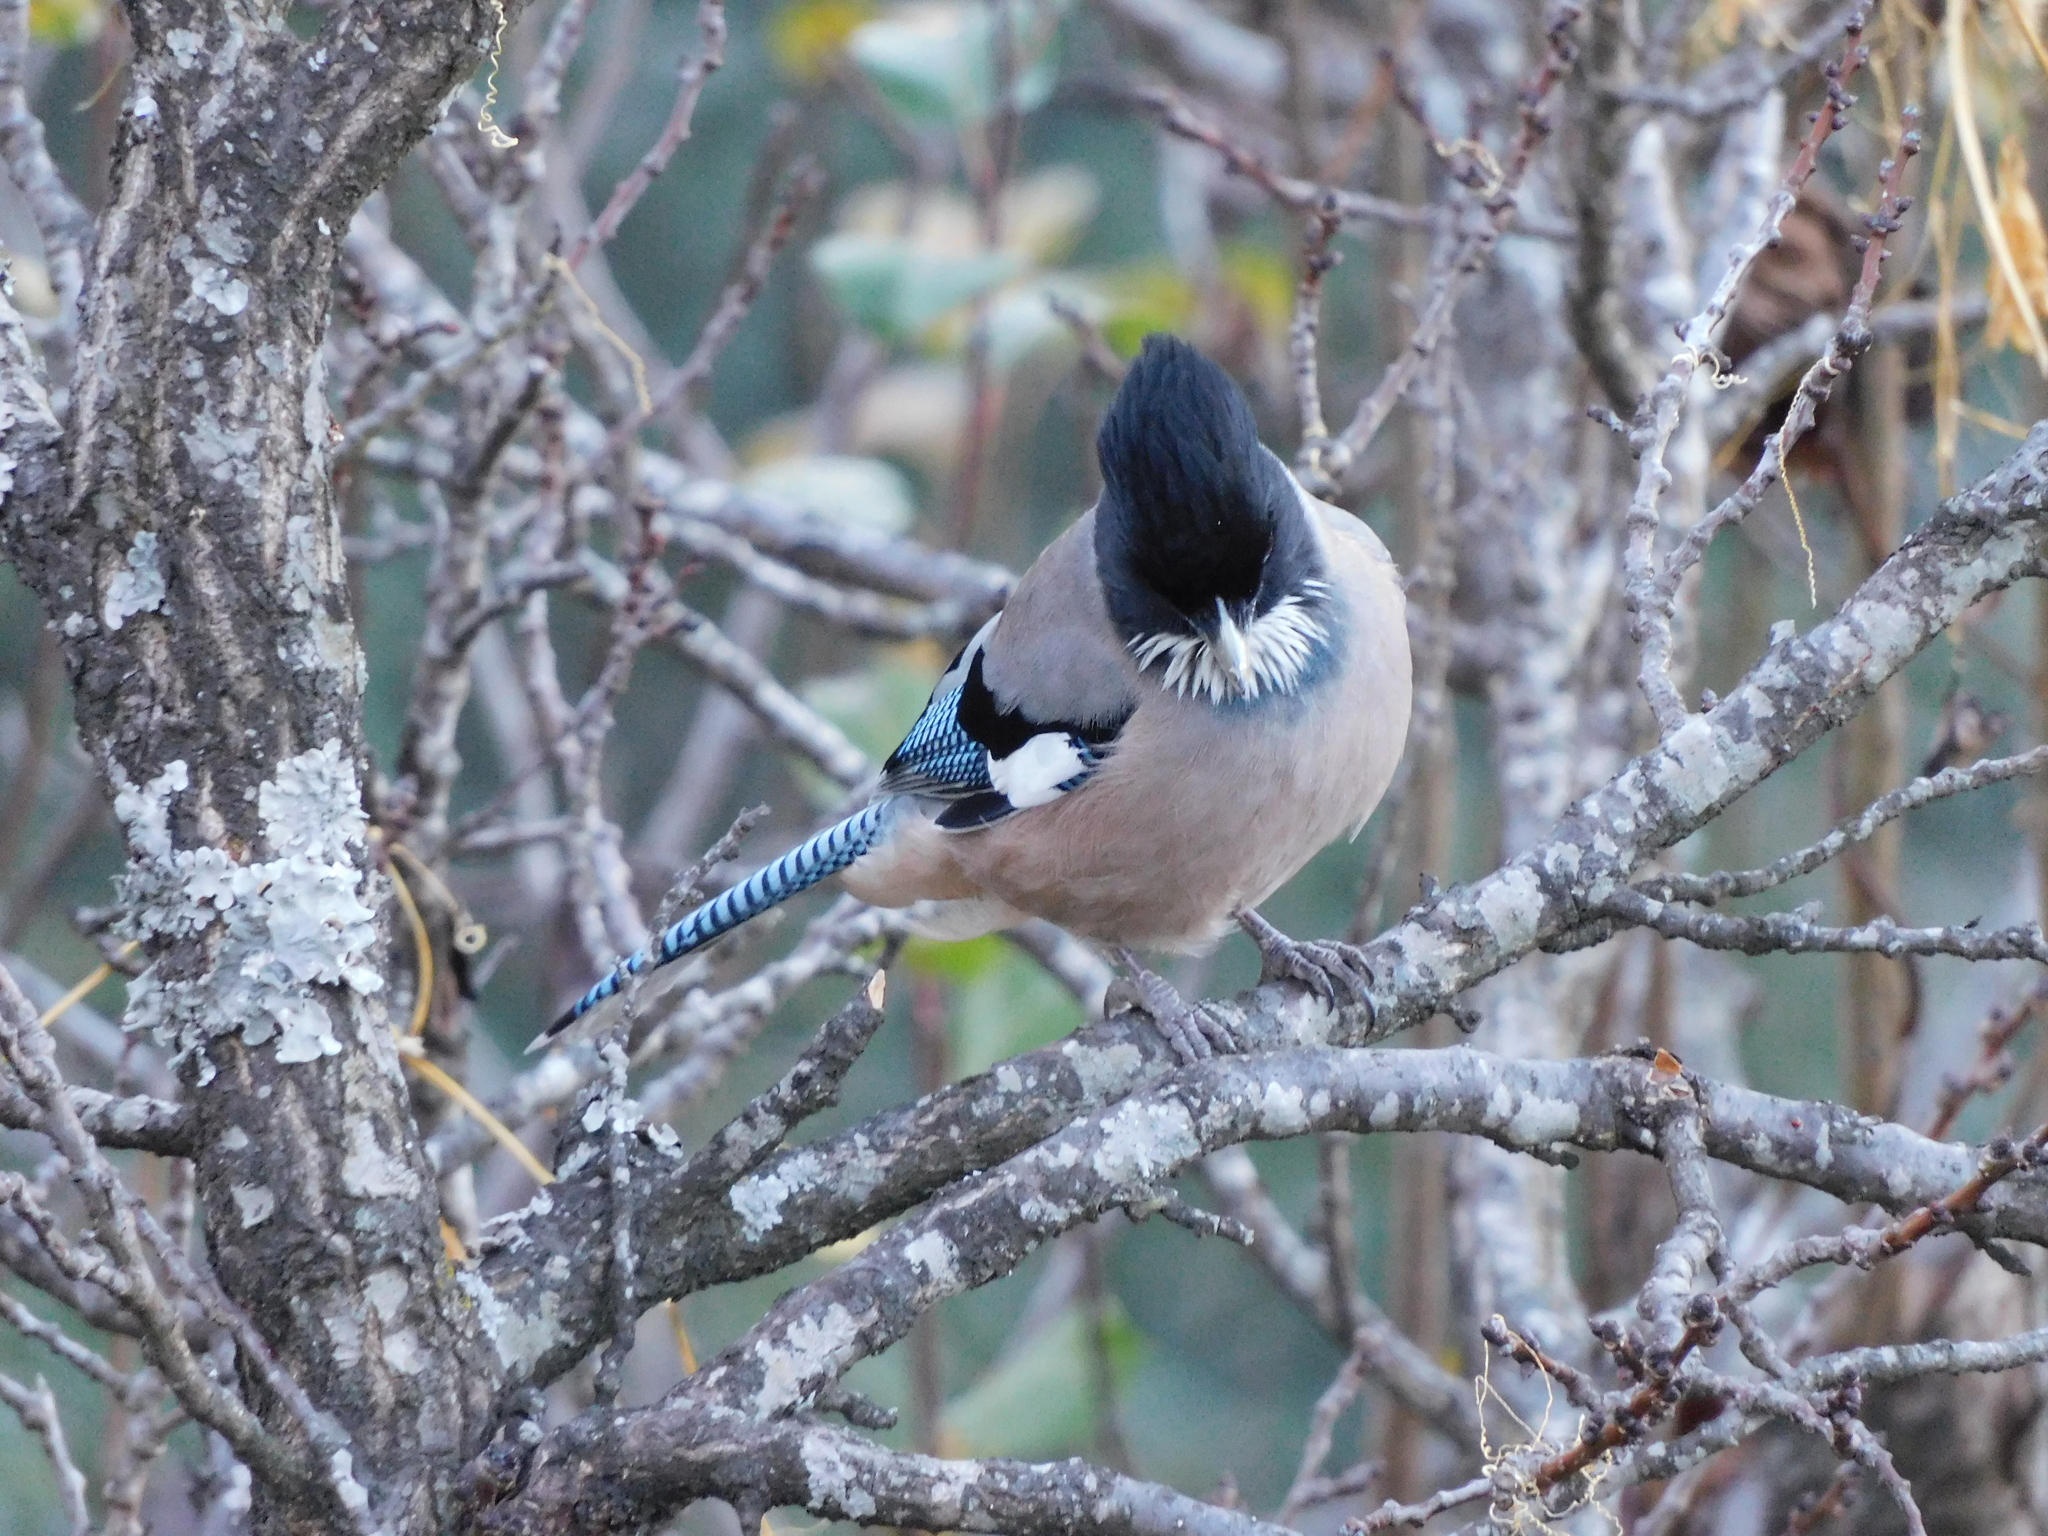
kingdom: Animalia
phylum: Chordata
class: Aves
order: Passeriformes
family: Corvidae
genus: Garrulus
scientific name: Garrulus lanceolatus
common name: Black-headed jay
